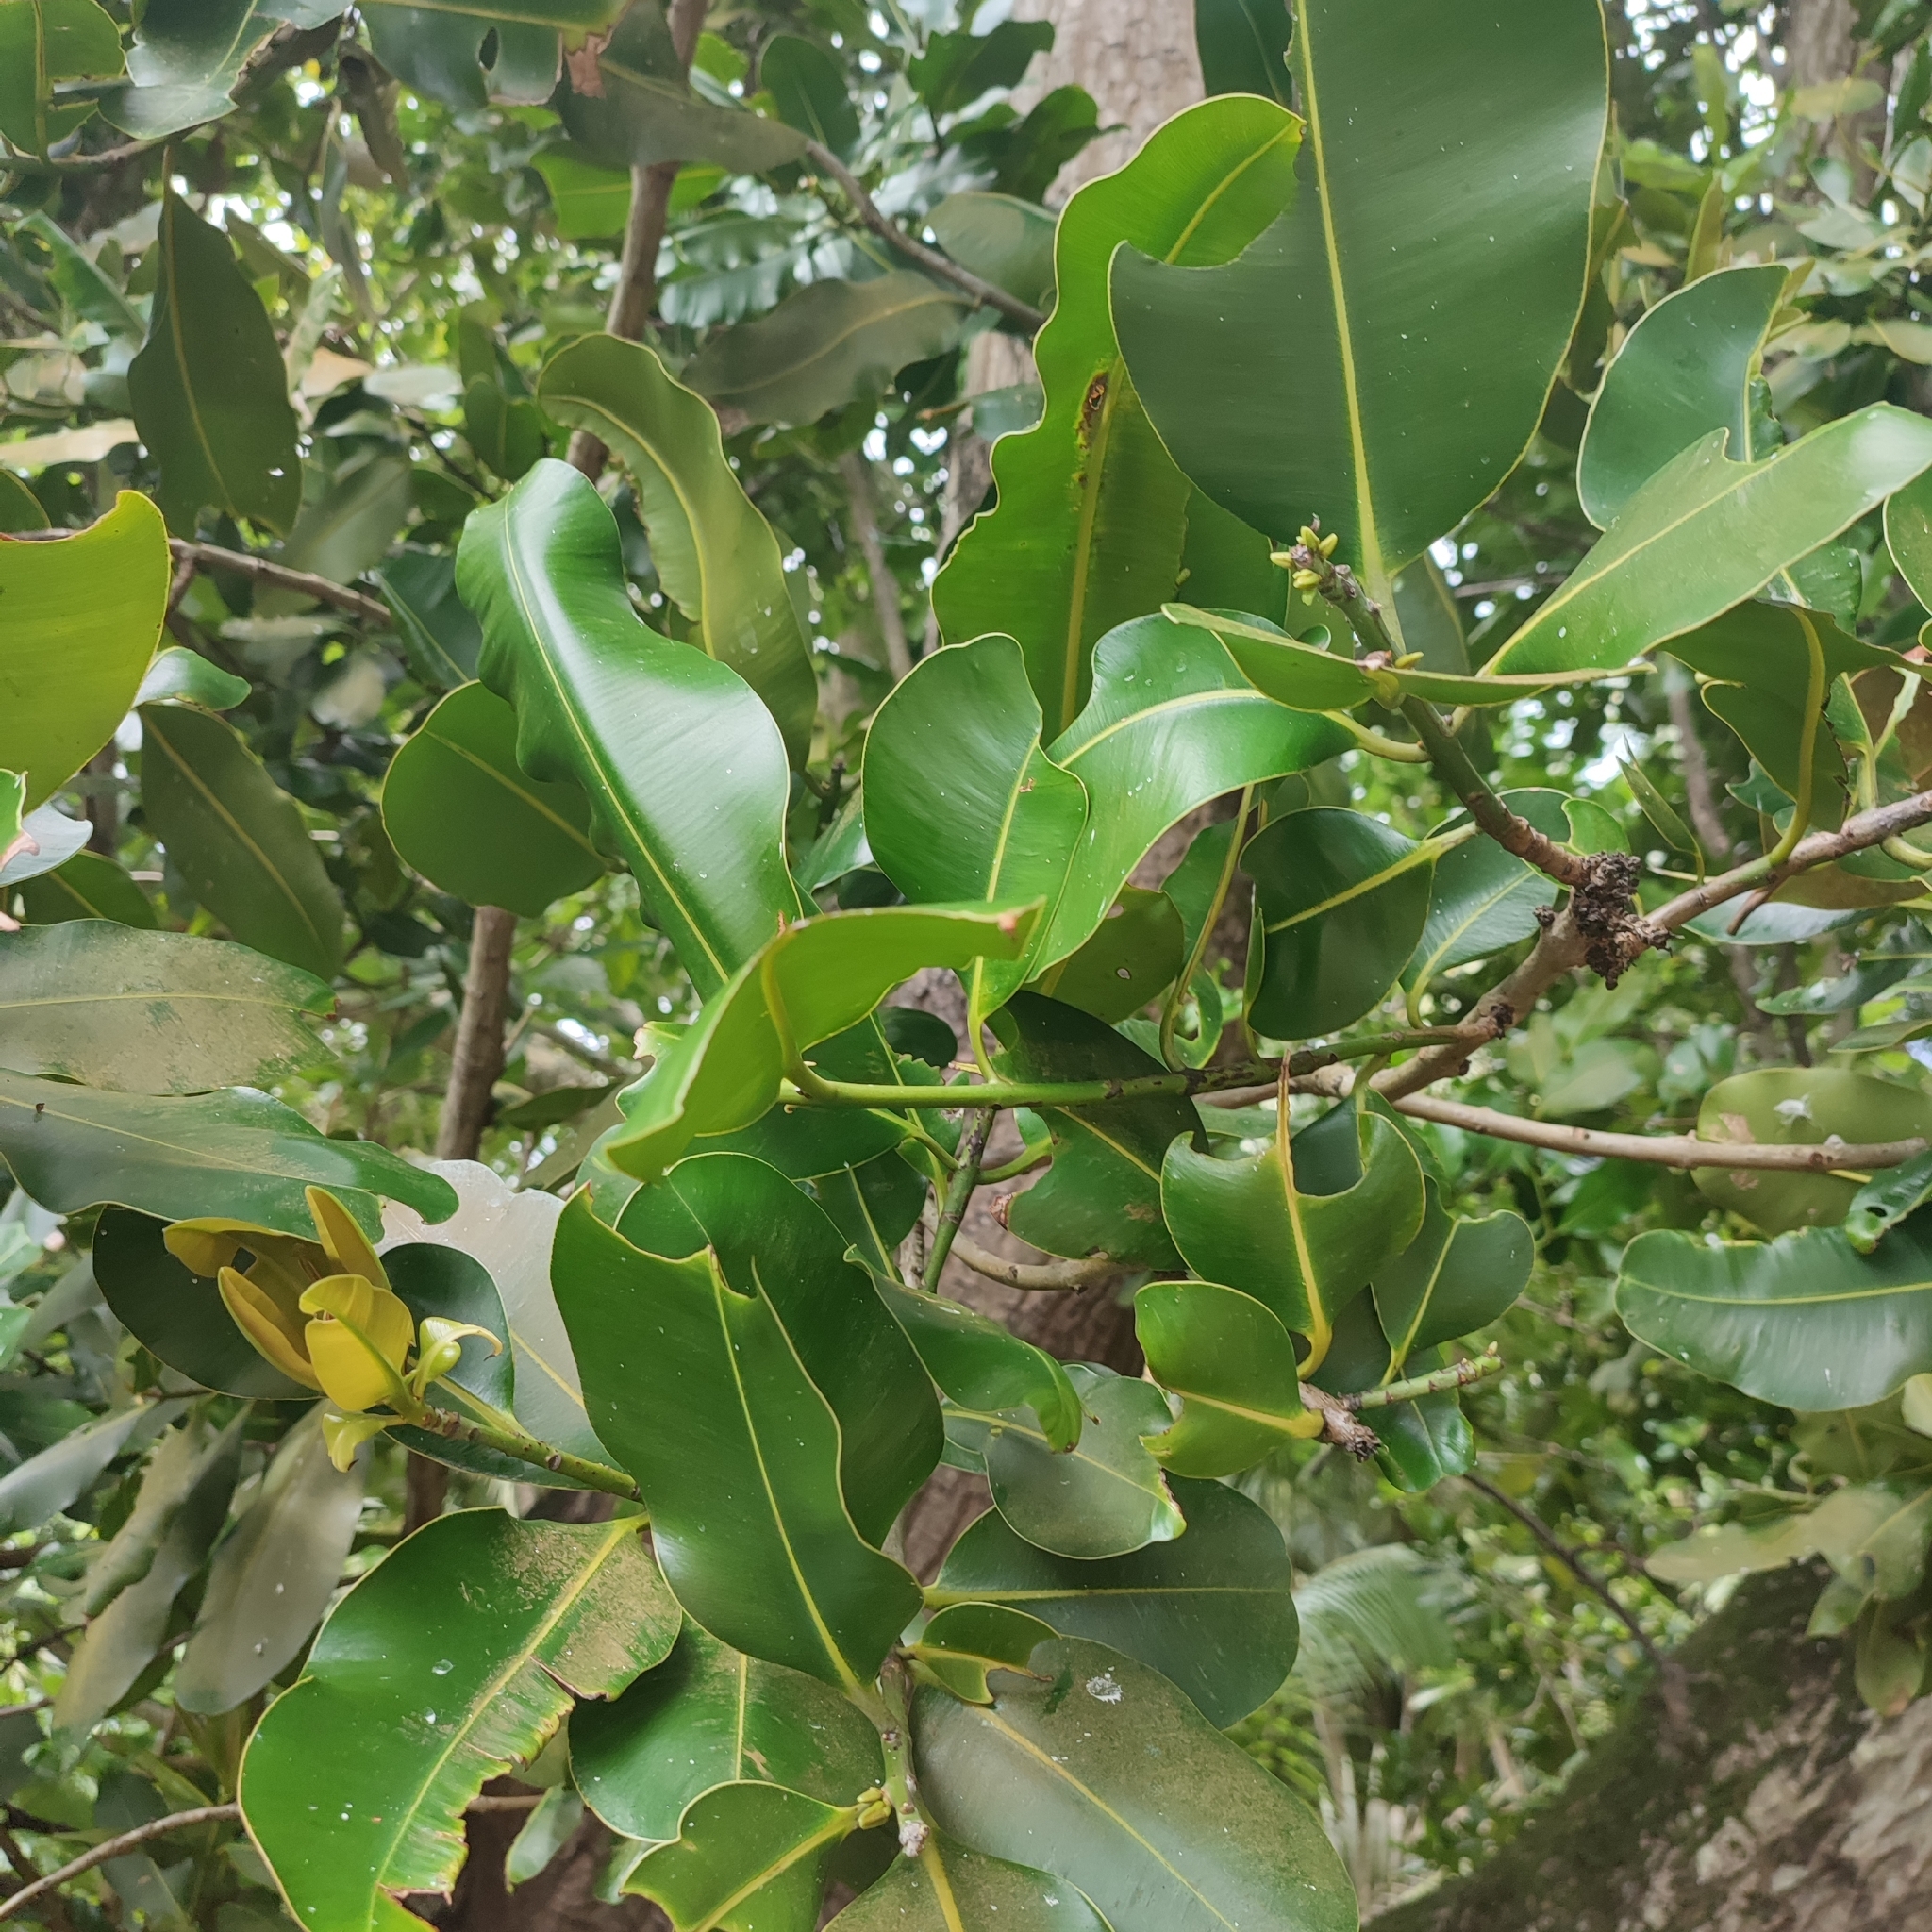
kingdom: Plantae
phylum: Tracheophyta
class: Magnoliopsida
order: Malpighiales
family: Calophyllaceae
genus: Calophyllum
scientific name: Calophyllum inophyllum
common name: Alexandrian laurel
